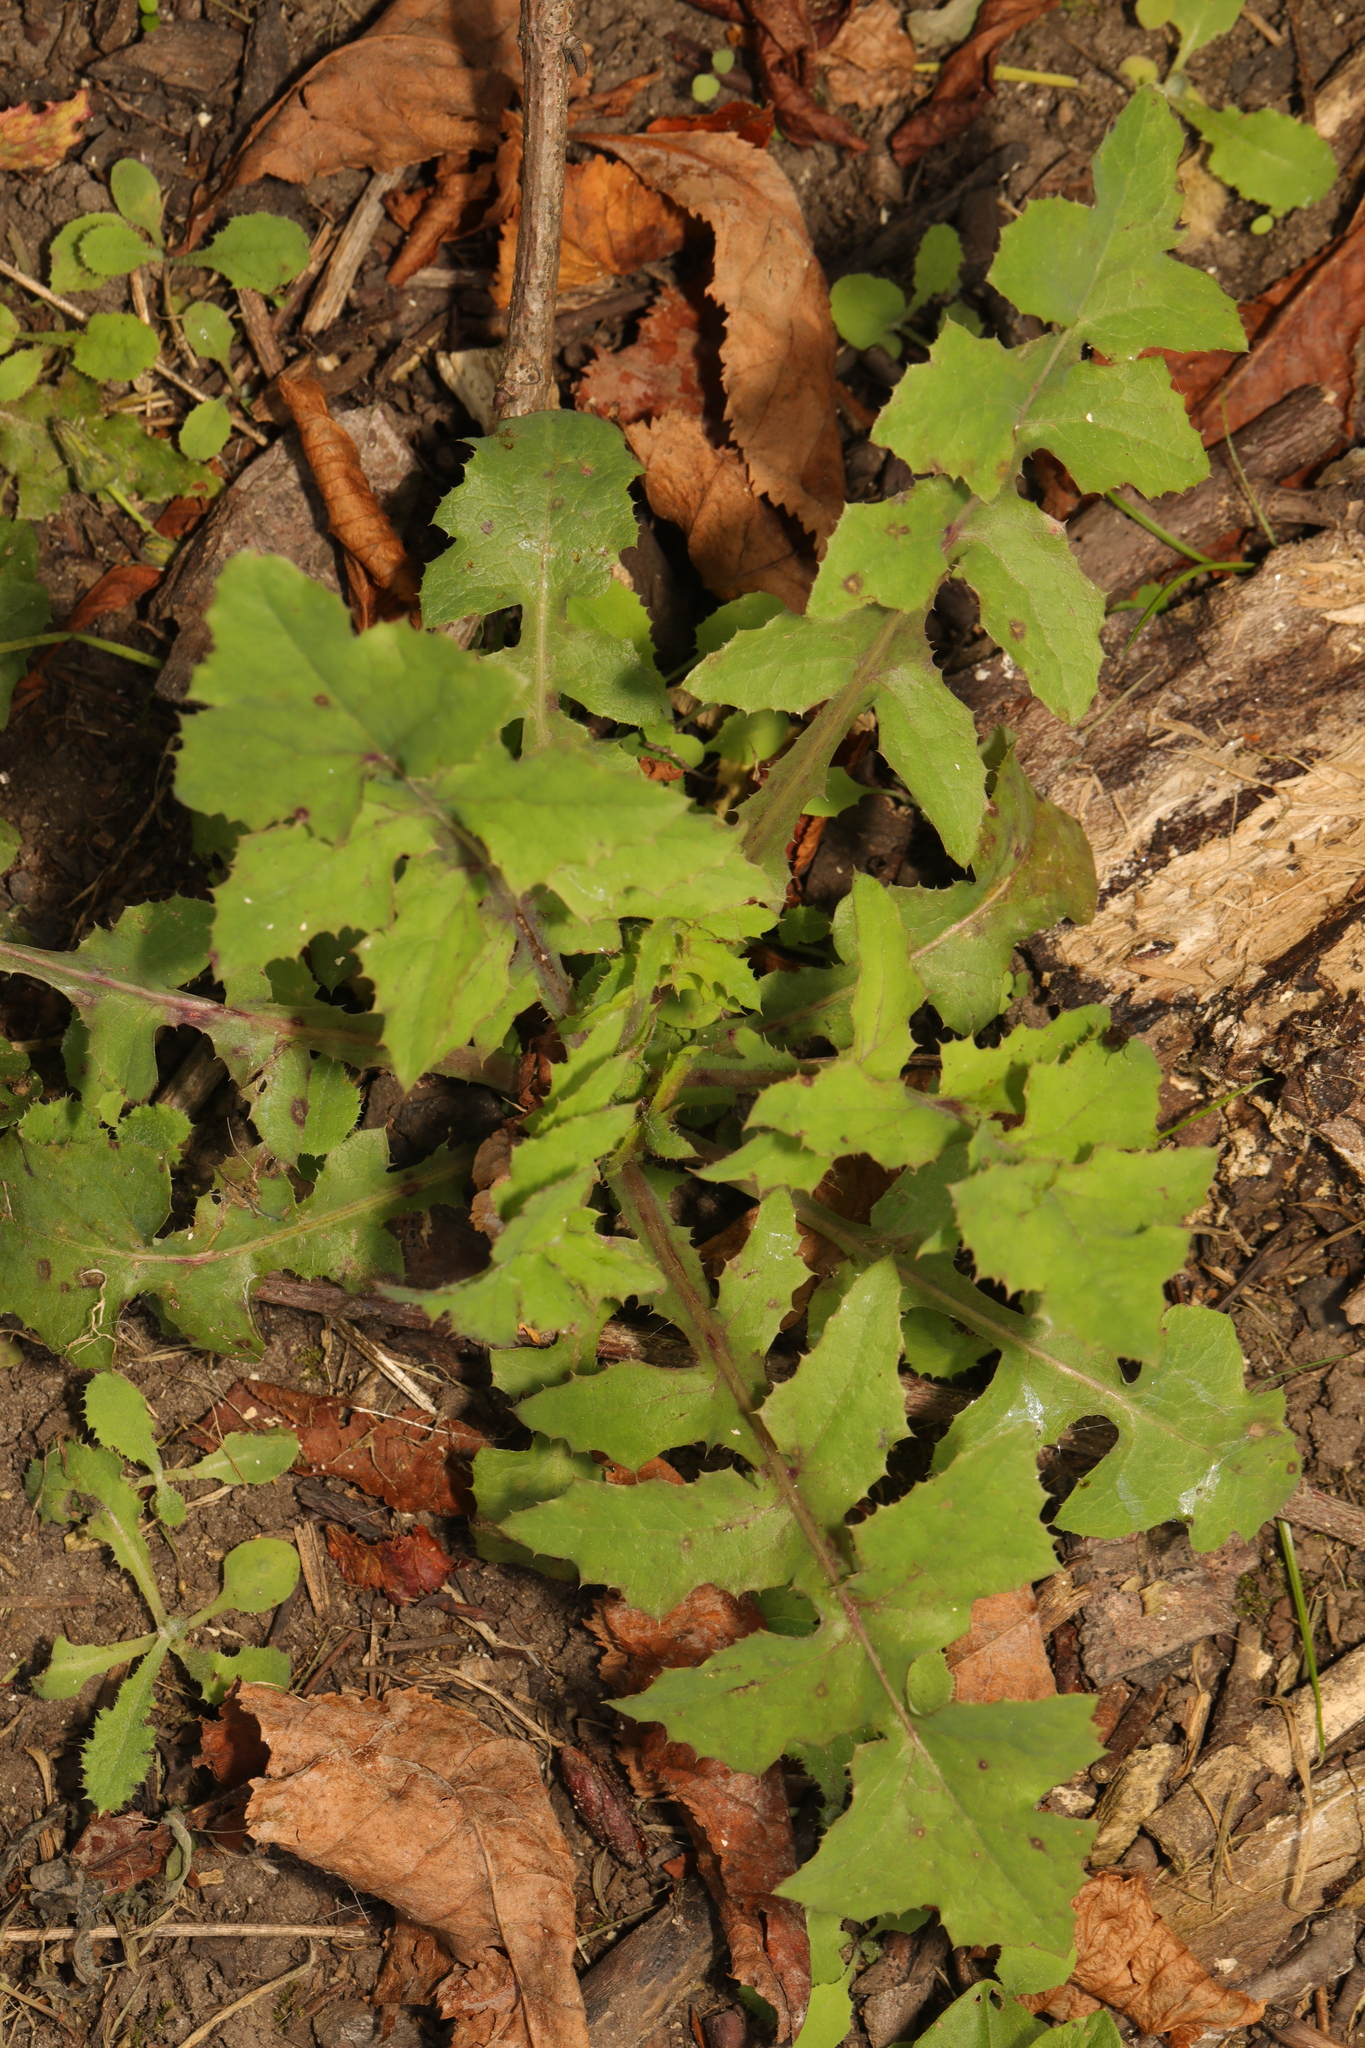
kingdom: Plantae
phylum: Tracheophyta
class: Magnoliopsida
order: Asterales
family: Asteraceae
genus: Sonchus
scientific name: Sonchus oleraceus
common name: Common sowthistle
